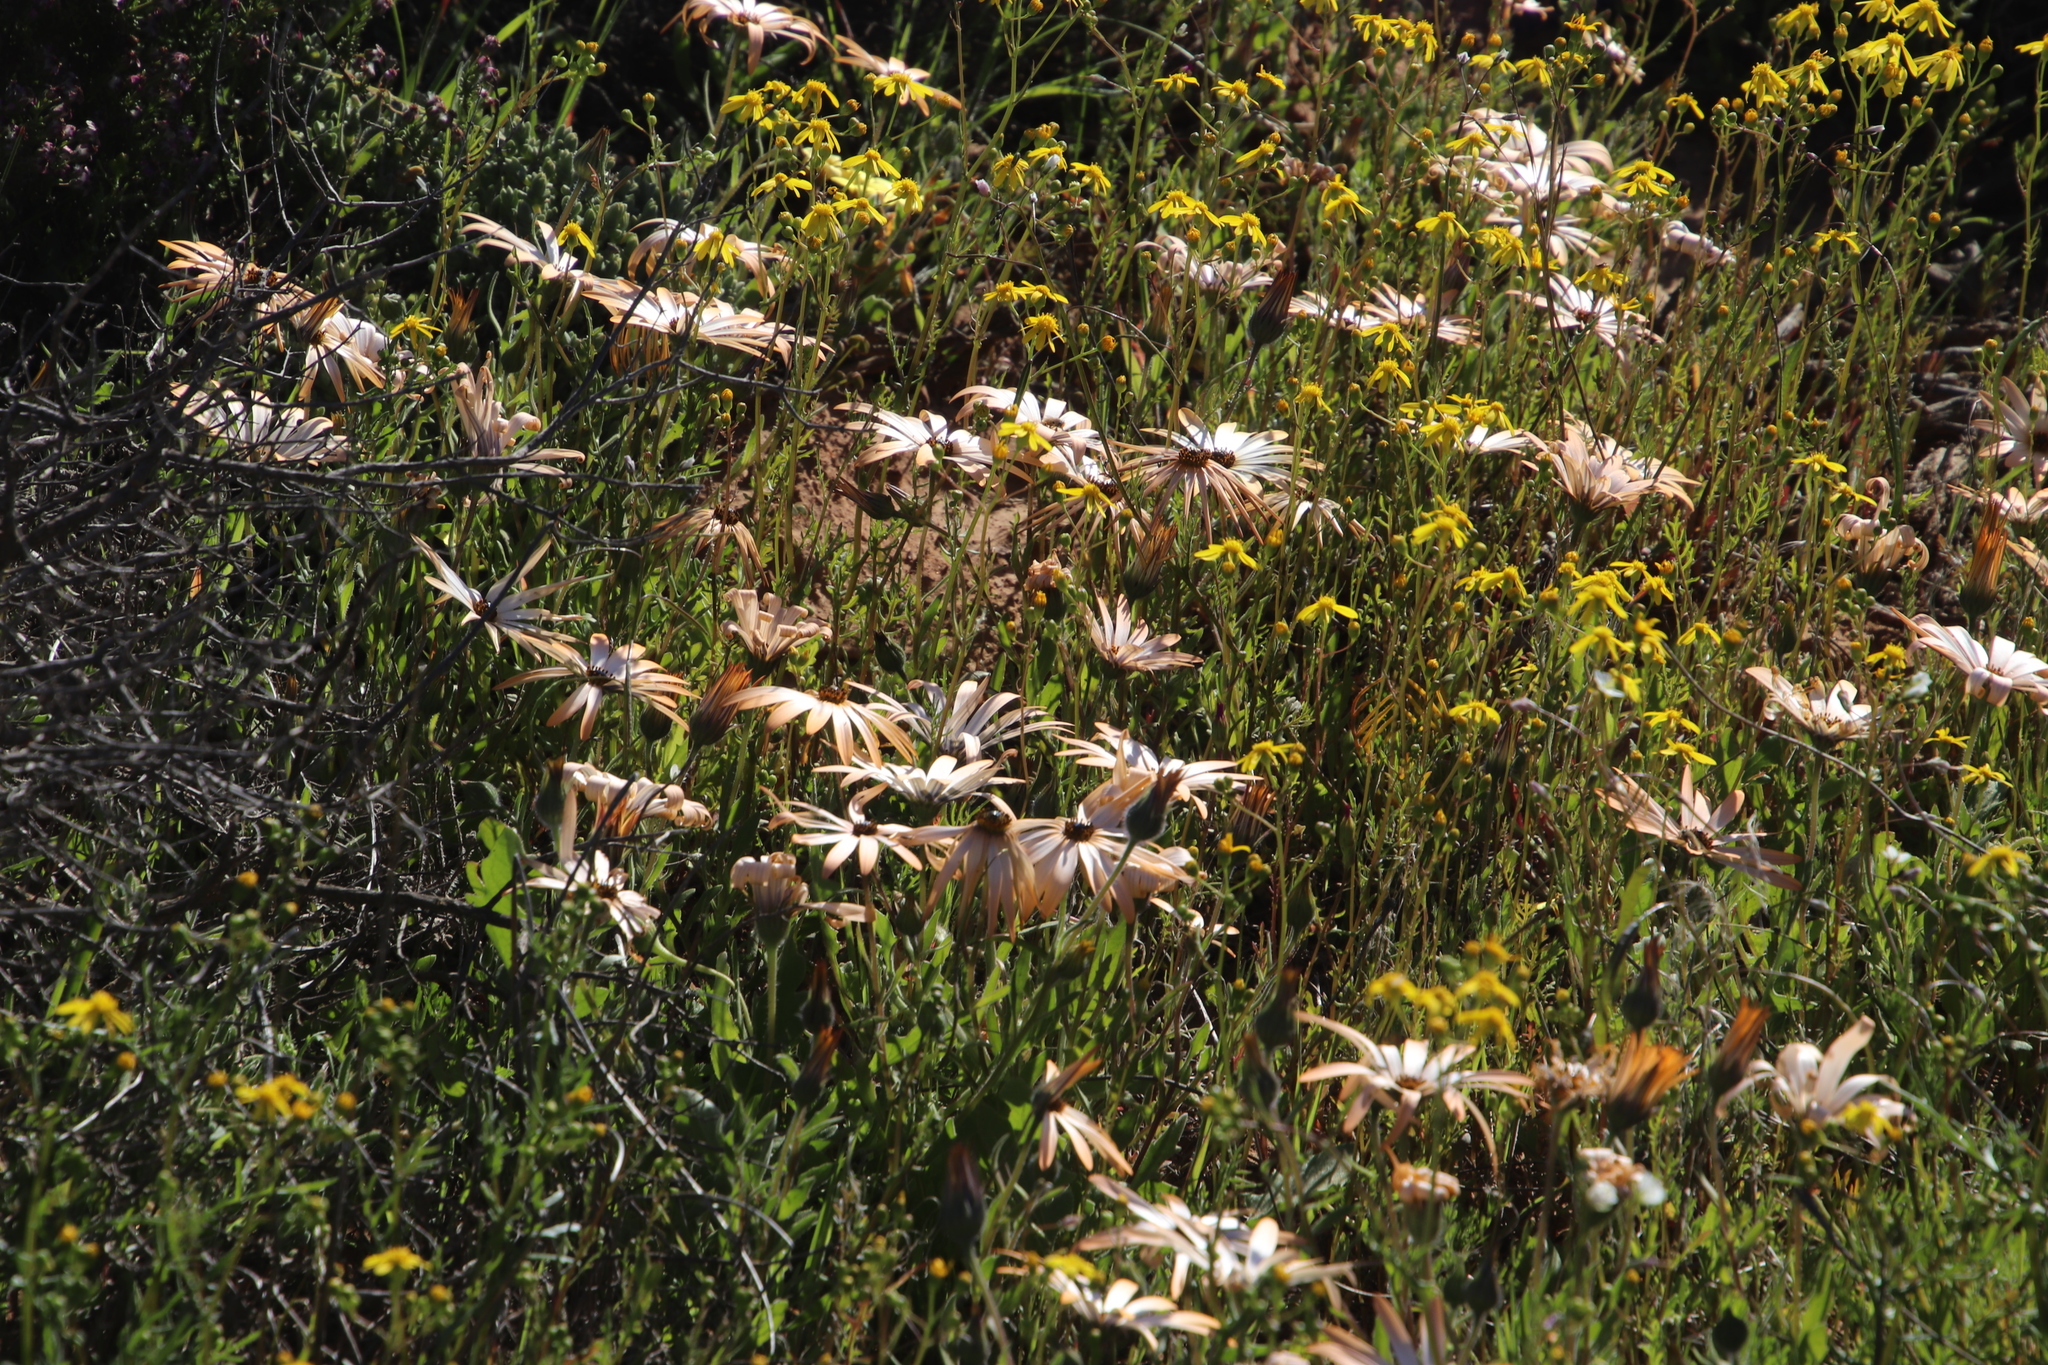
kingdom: Plantae
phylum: Tracheophyta
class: Magnoliopsida
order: Asterales
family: Asteraceae
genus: Dimorphotheca
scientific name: Dimorphotheca sinuata
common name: Glandular cape marigold
